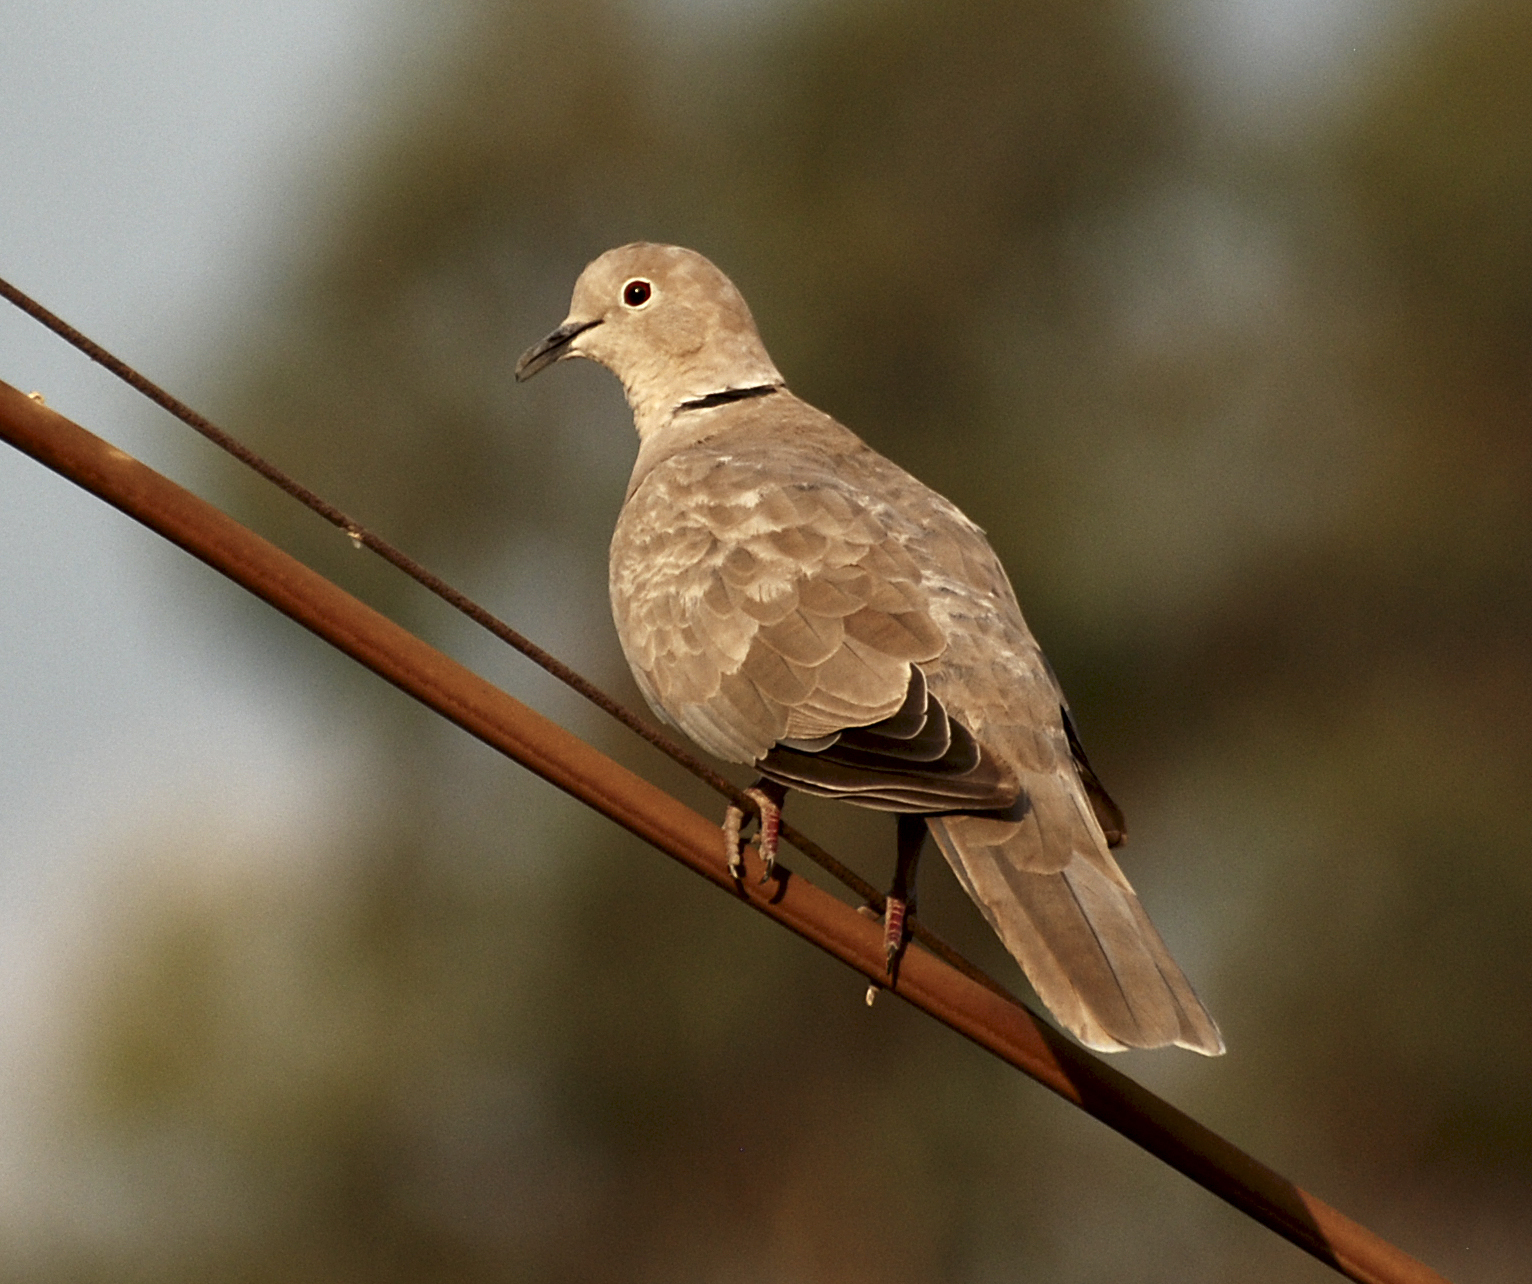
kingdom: Animalia
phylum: Chordata
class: Aves
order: Columbiformes
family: Columbidae
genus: Streptopelia
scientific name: Streptopelia decaocto
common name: Eurasian collared dove
